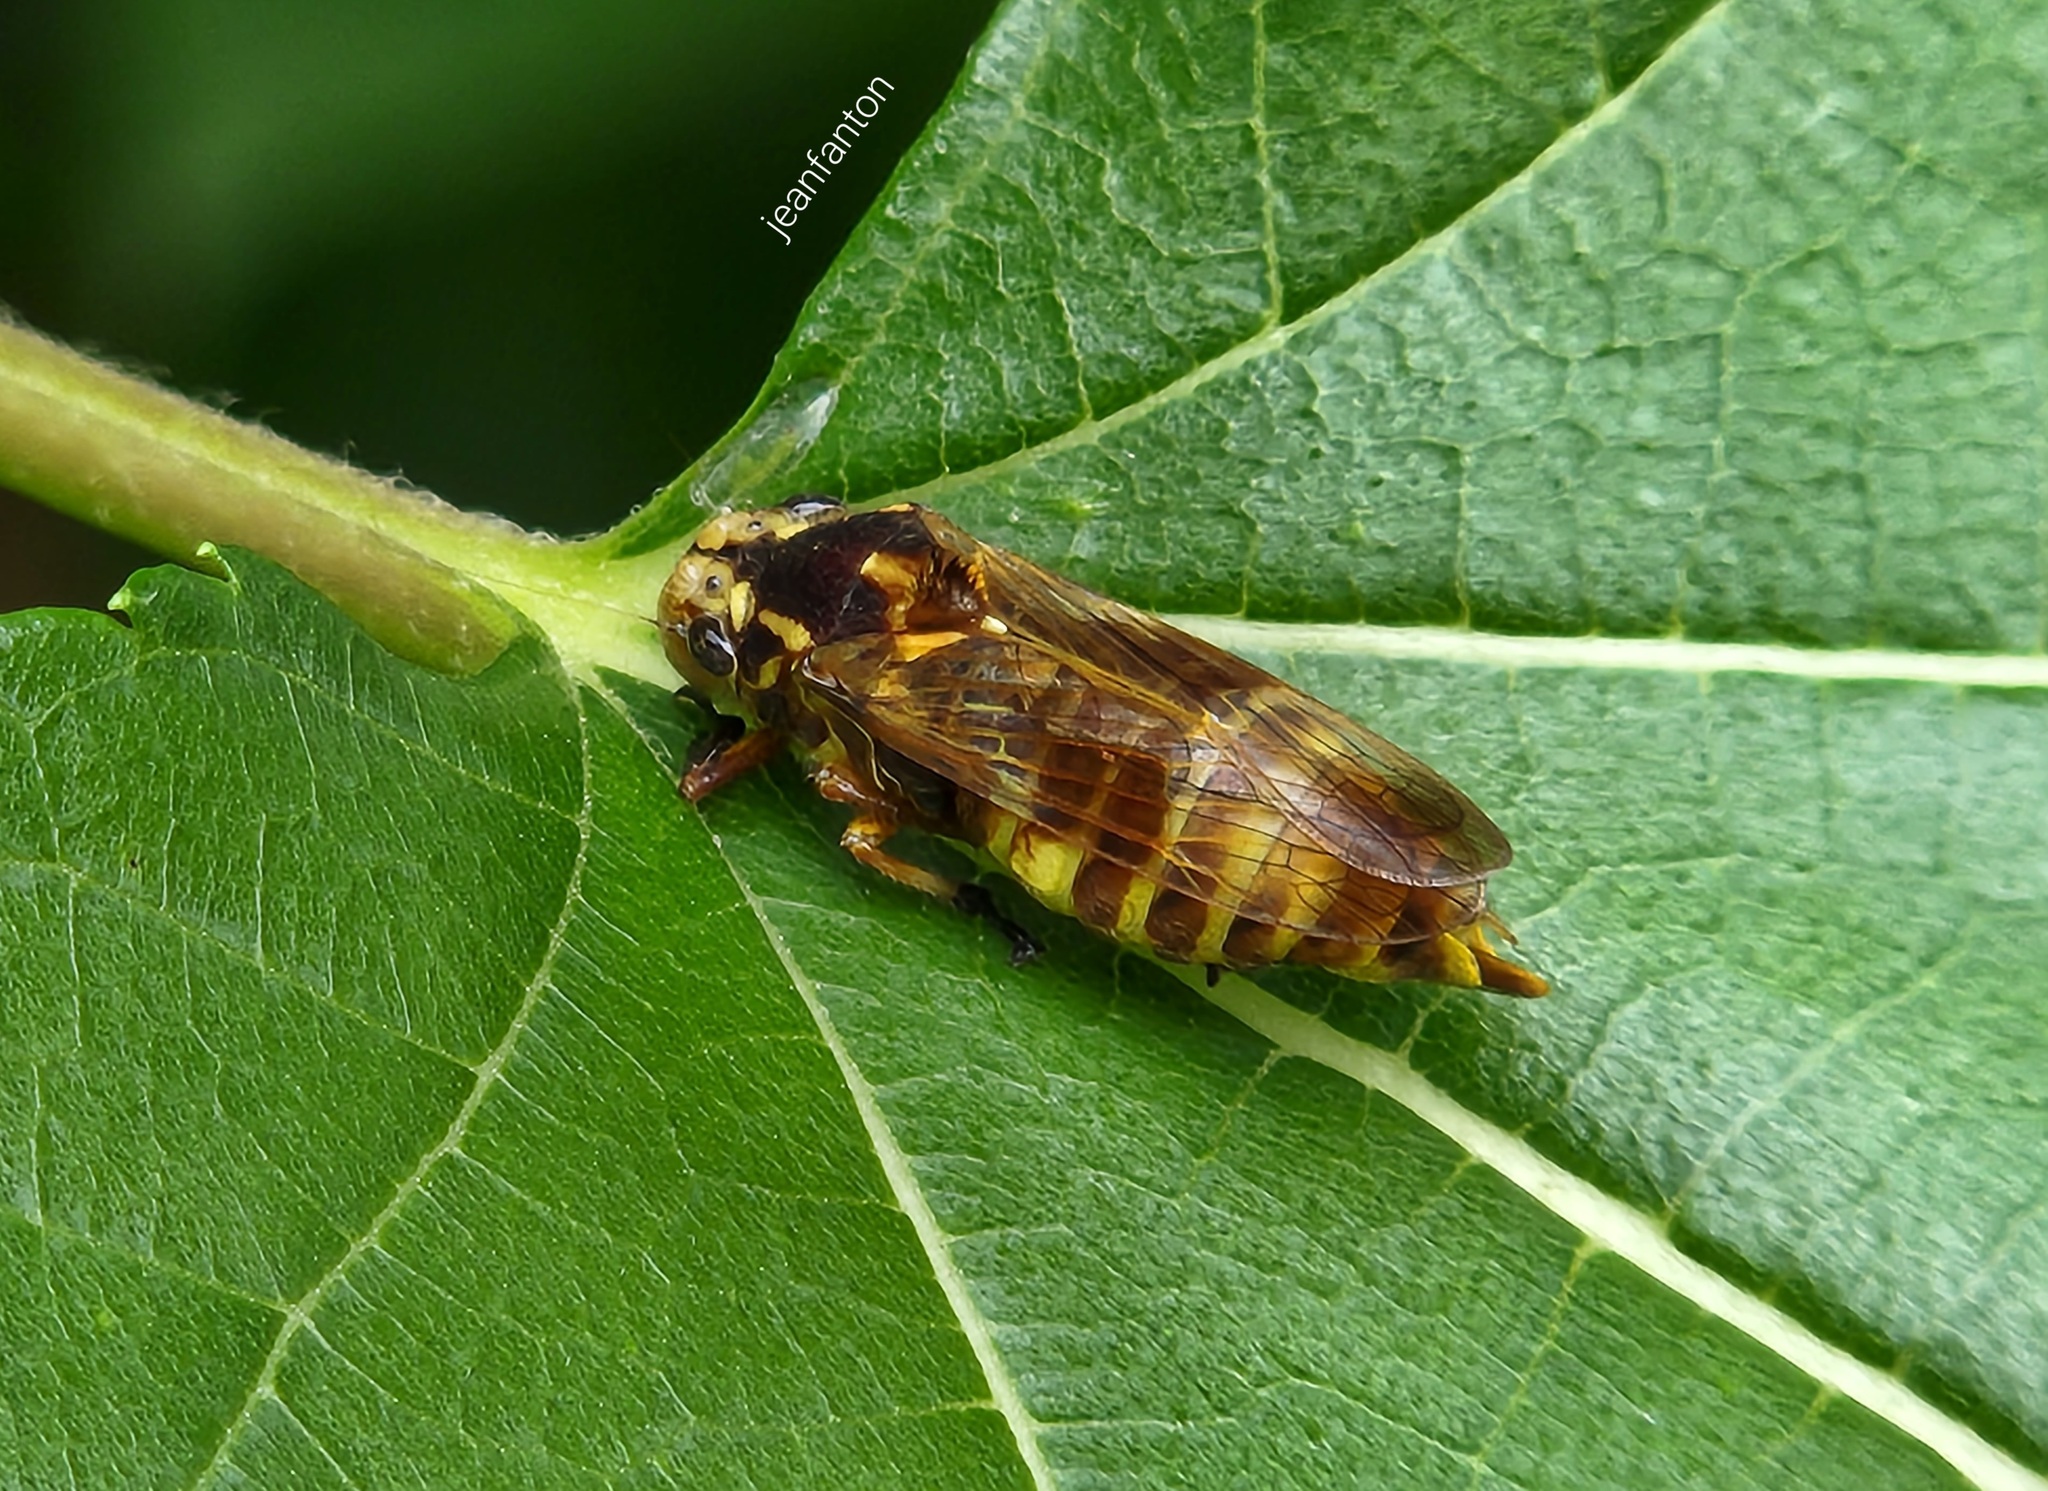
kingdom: Animalia
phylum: Arthropoda
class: Insecta
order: Hemiptera
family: Cicadellidae
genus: Teletusa
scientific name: Teletusa limpida
